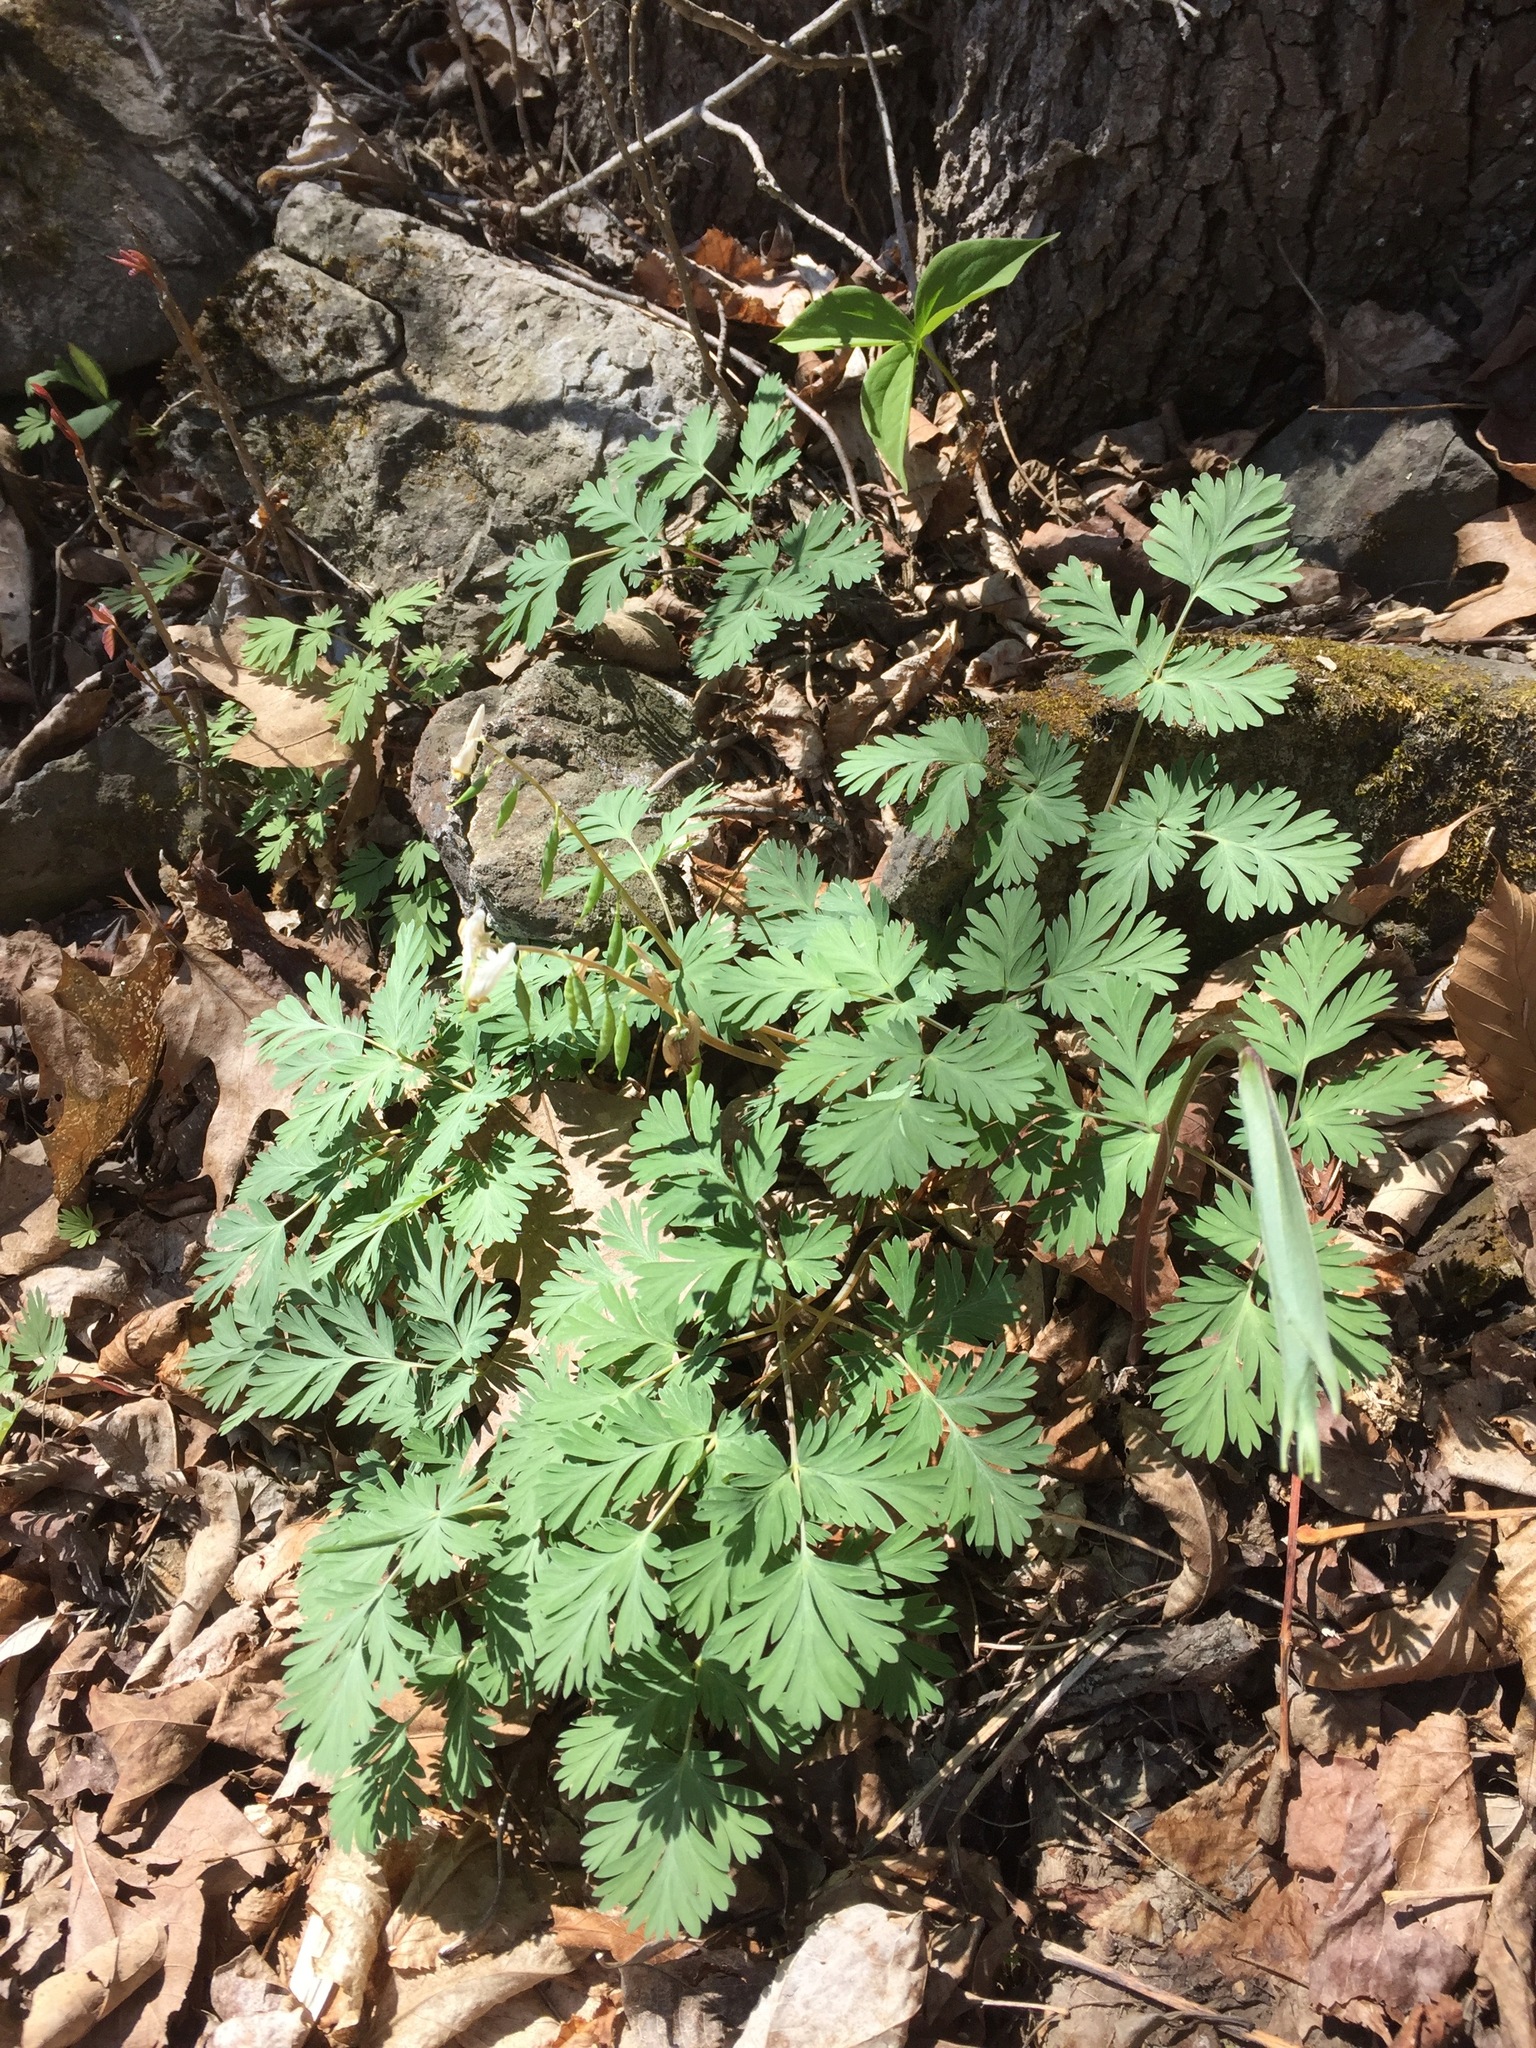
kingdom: Plantae
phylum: Tracheophyta
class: Magnoliopsida
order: Ranunculales
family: Papaveraceae
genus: Dicentra
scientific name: Dicentra cucullaria
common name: Dutchman's breeches
